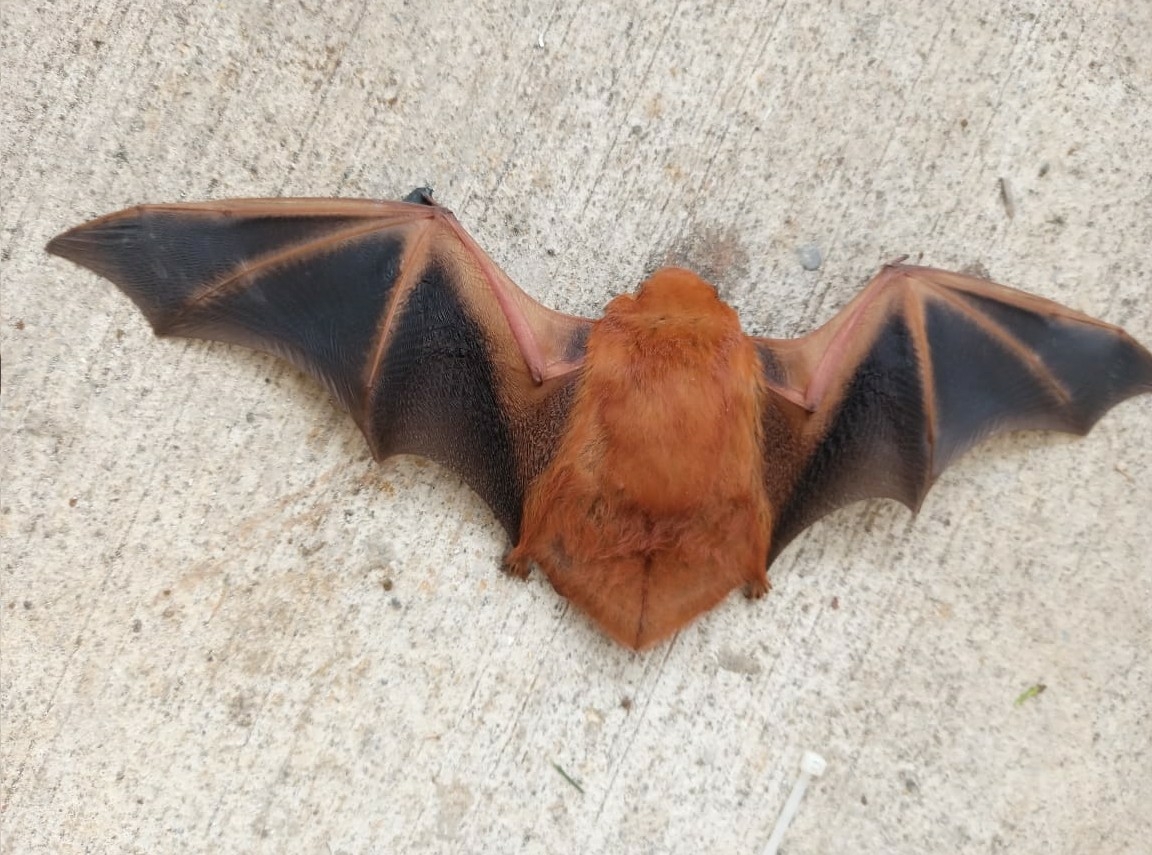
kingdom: Animalia
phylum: Chordata
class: Mammalia
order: Chiroptera
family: Vespertilionidae
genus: Lasiurus
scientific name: Lasiurus frantzii
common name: Desert red bat
